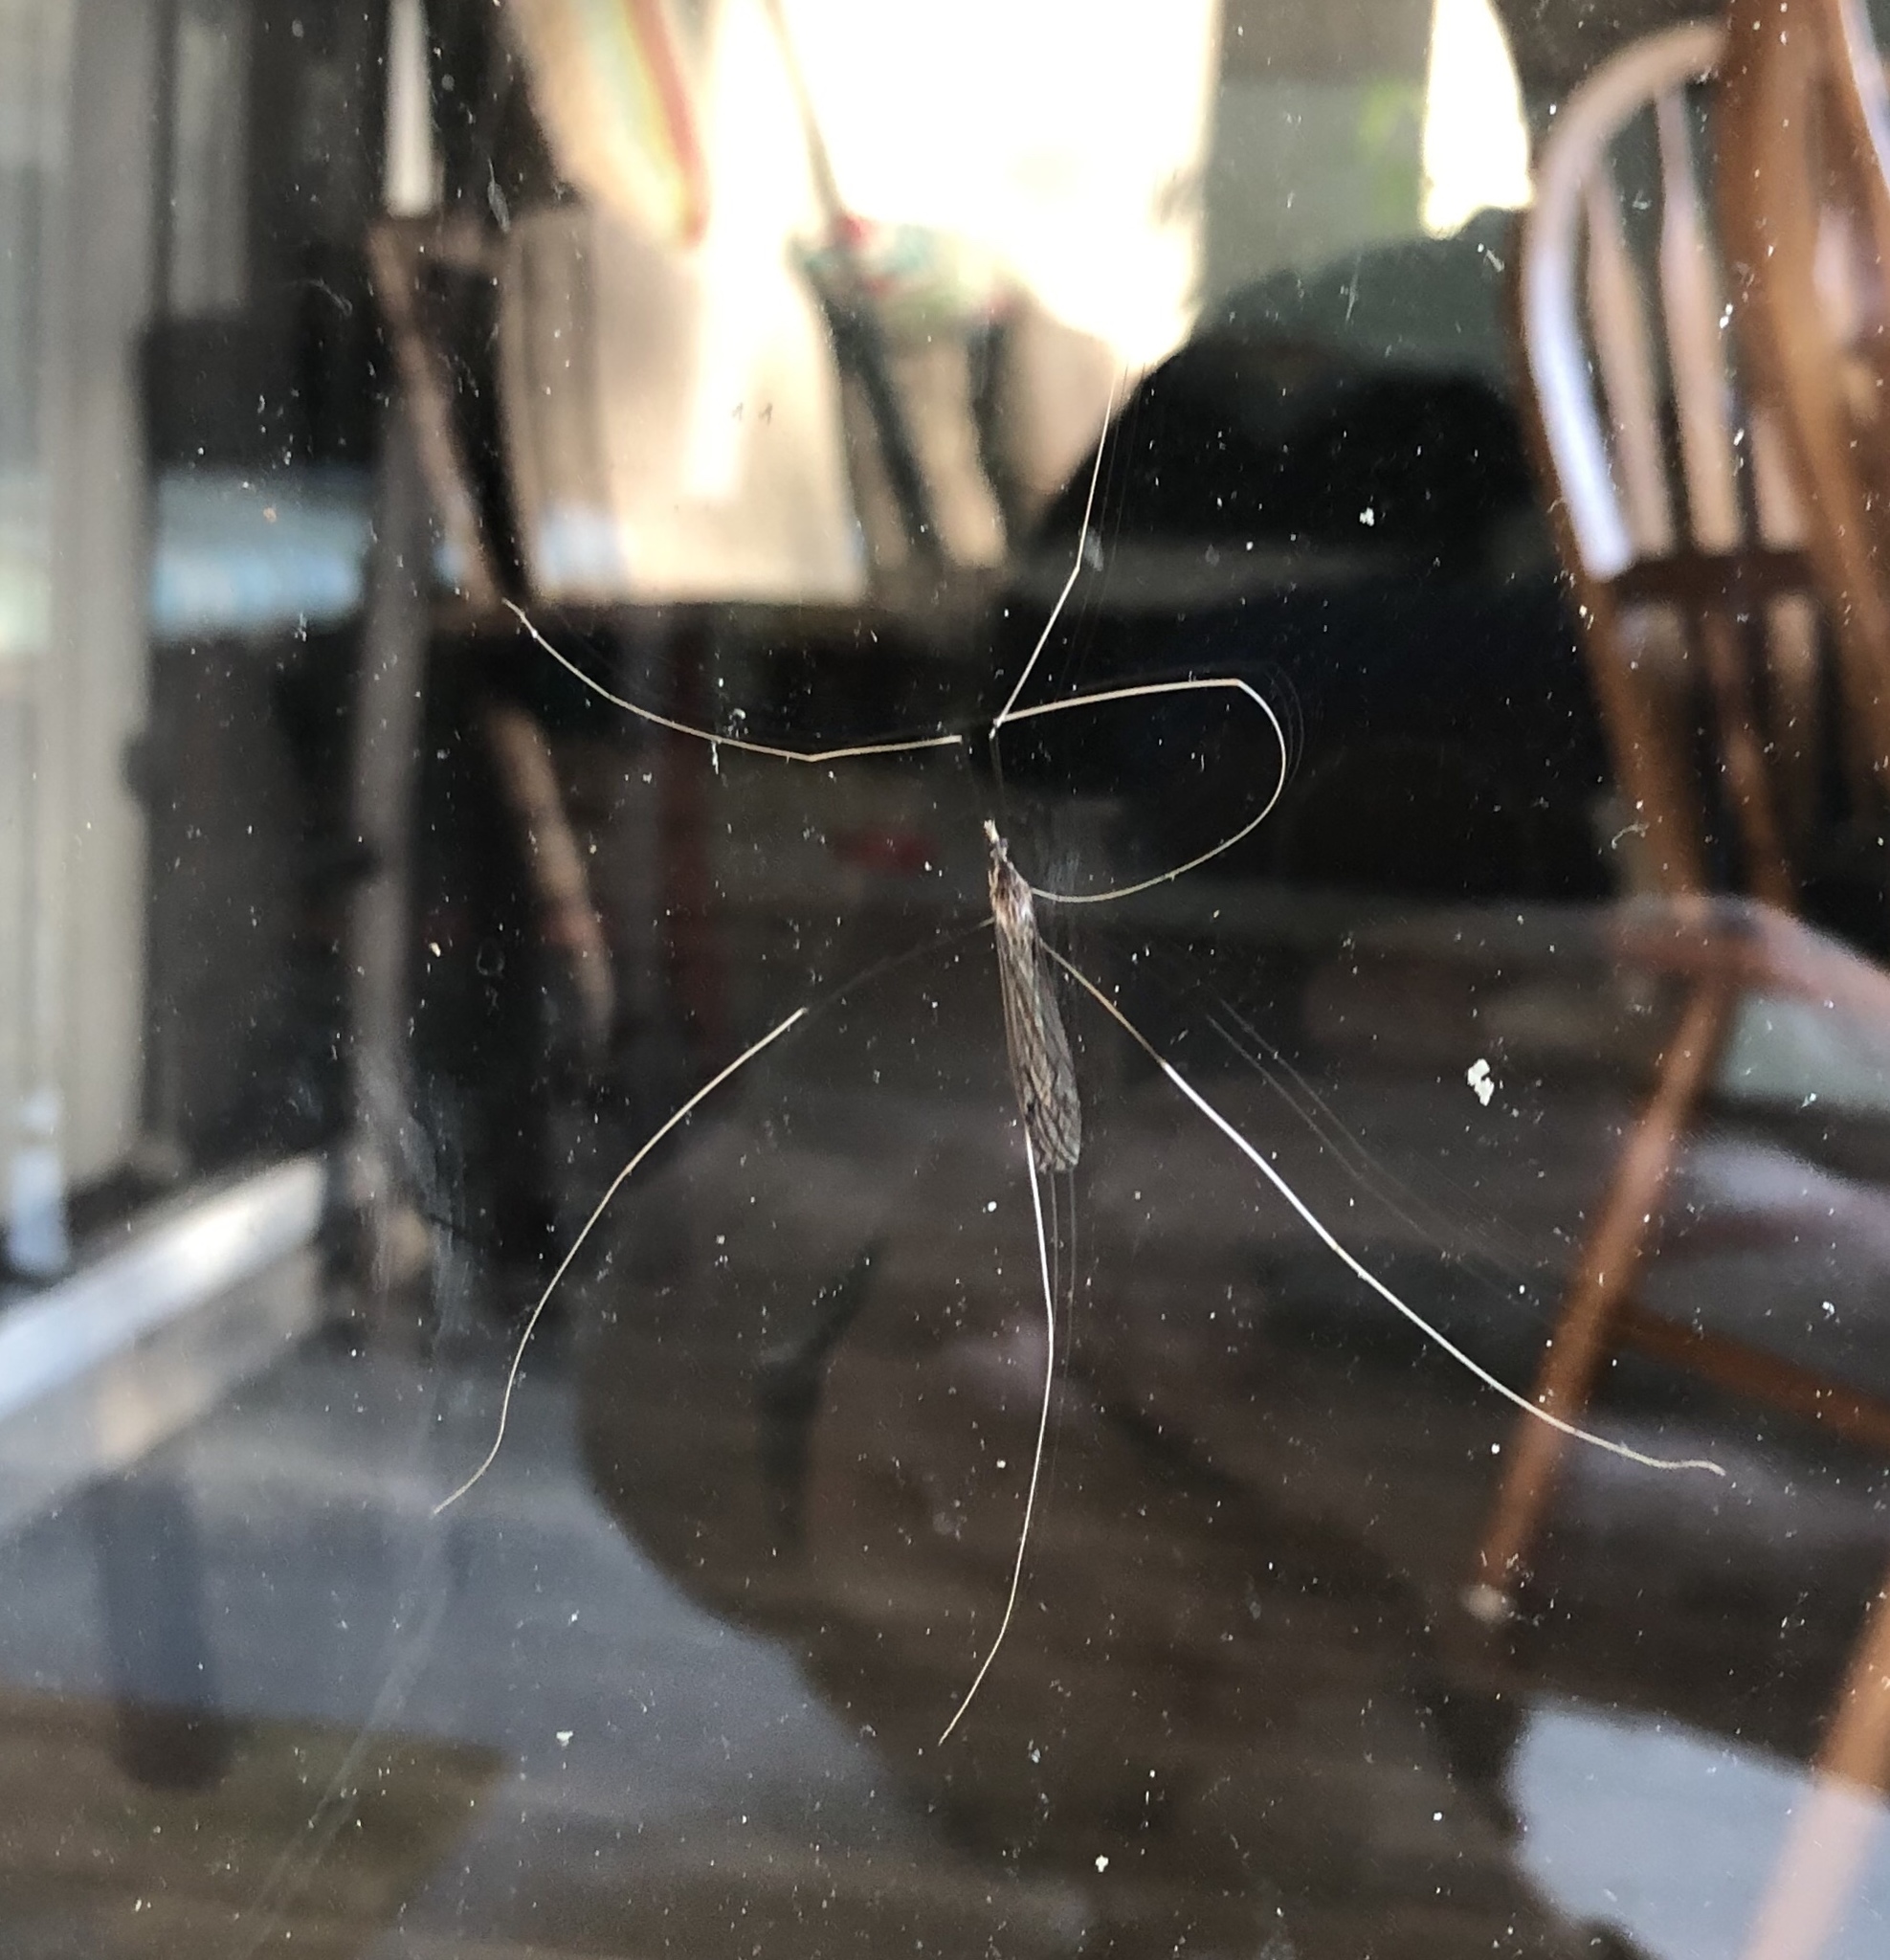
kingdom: Animalia
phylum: Arthropoda
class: Insecta
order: Diptera
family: Tipulidae
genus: Brachypremna
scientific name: Brachypremna dispellens
